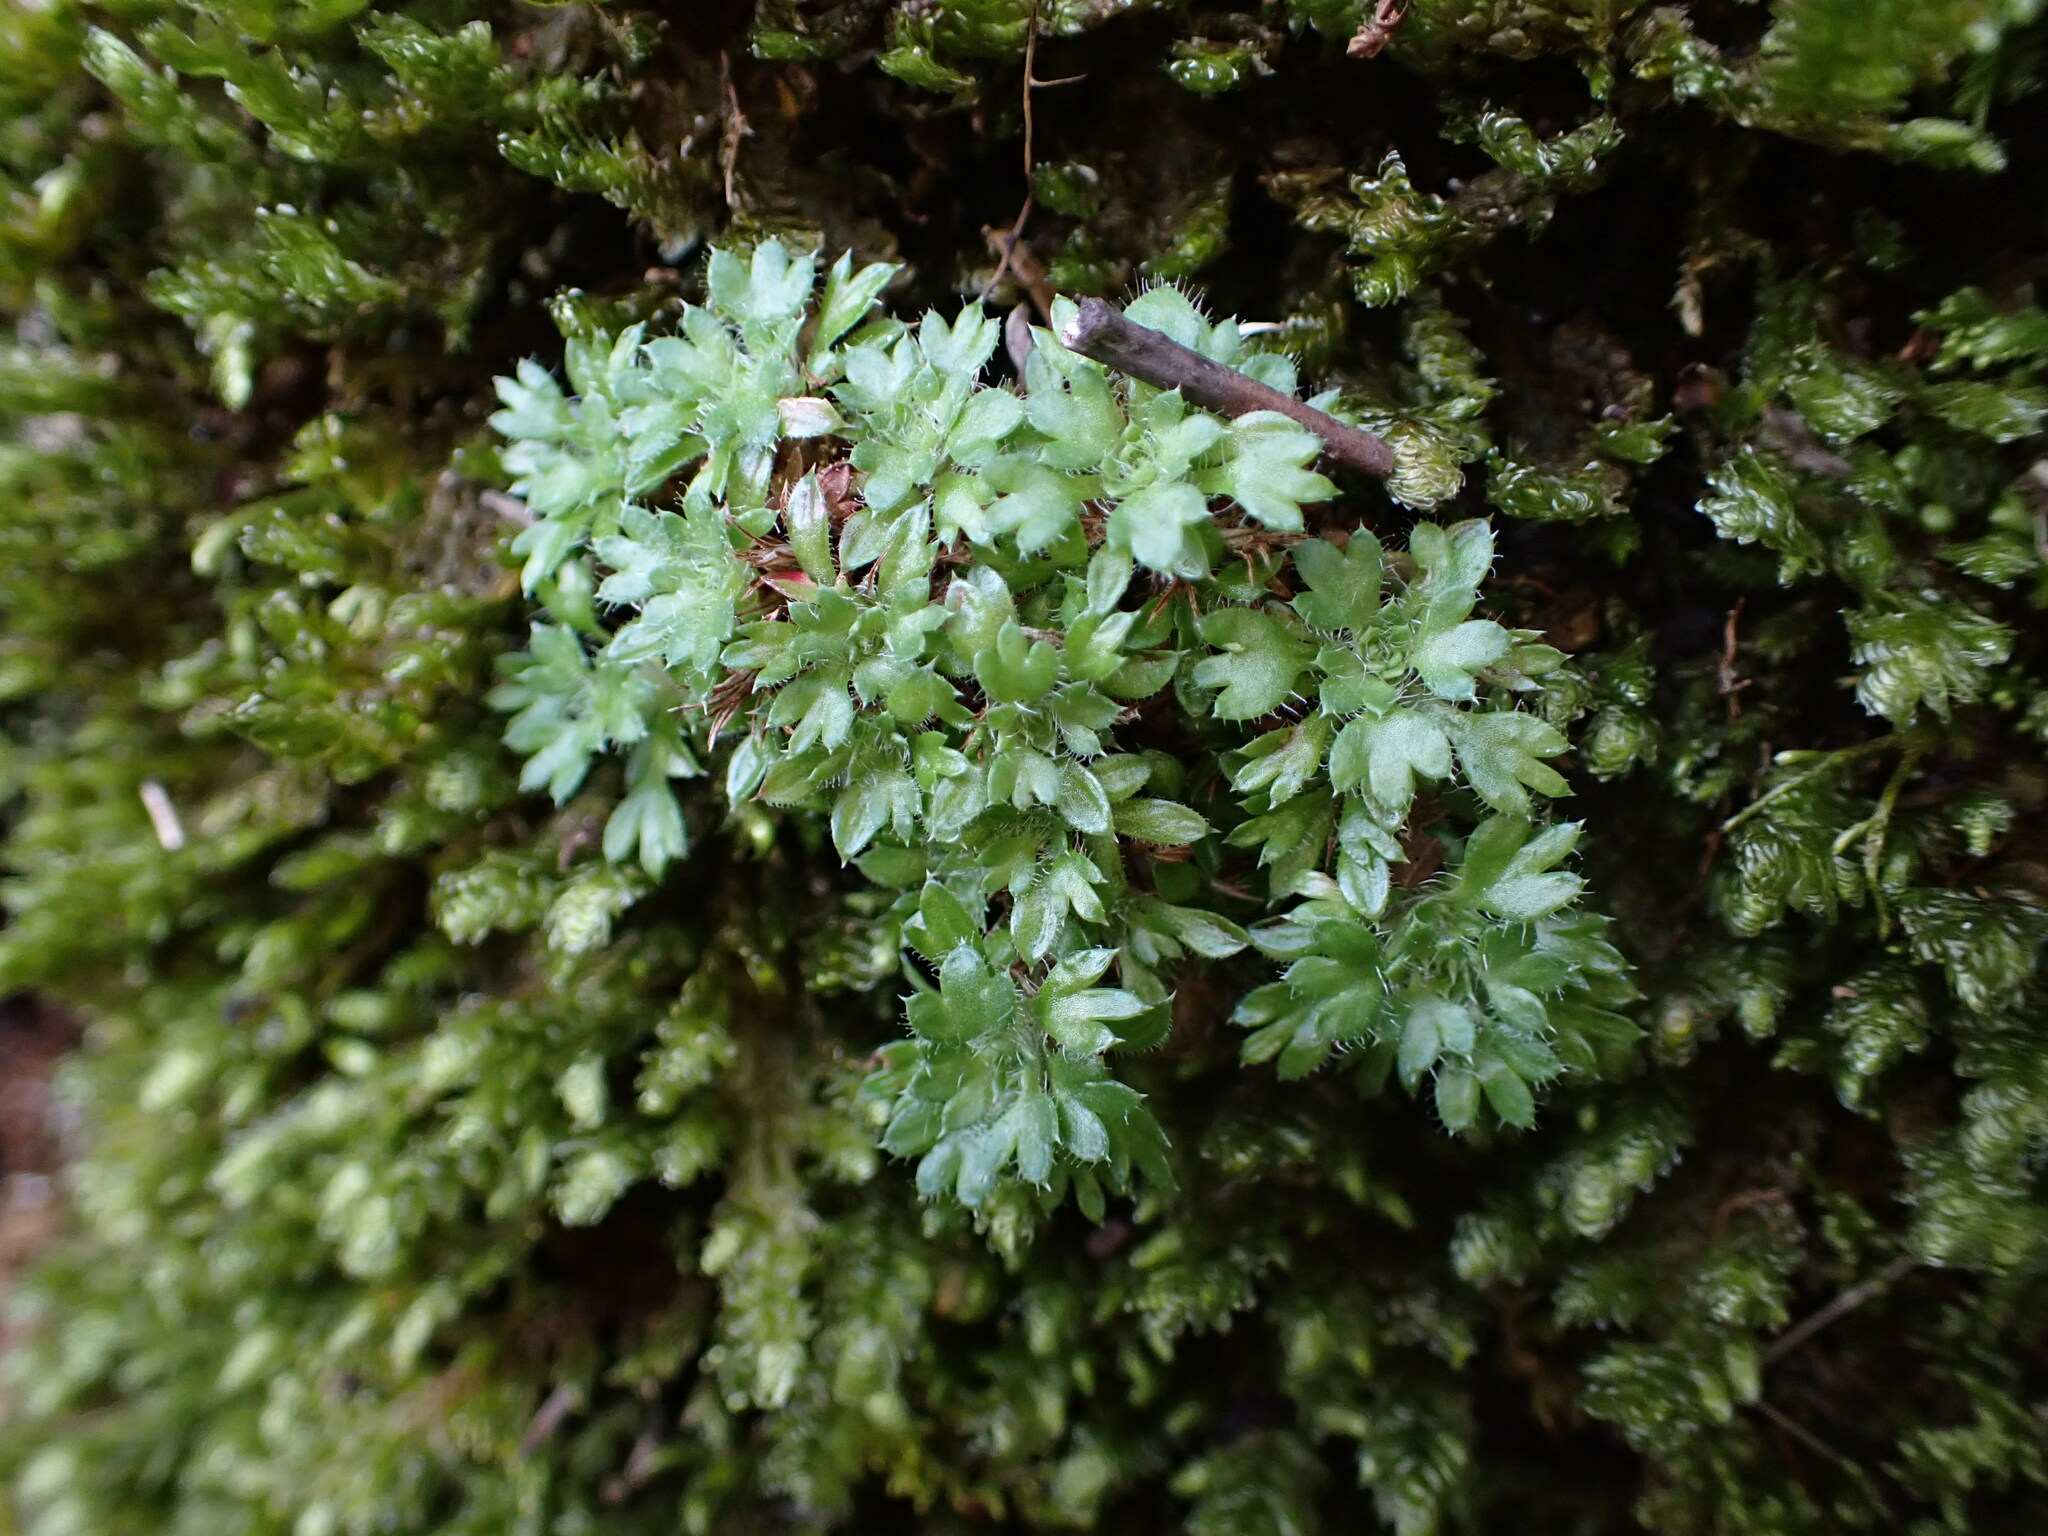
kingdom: Plantae
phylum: Tracheophyta
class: Magnoliopsida
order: Saxifragales
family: Saxifragaceae
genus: Saxifraga
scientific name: Saxifraga fragosoi
